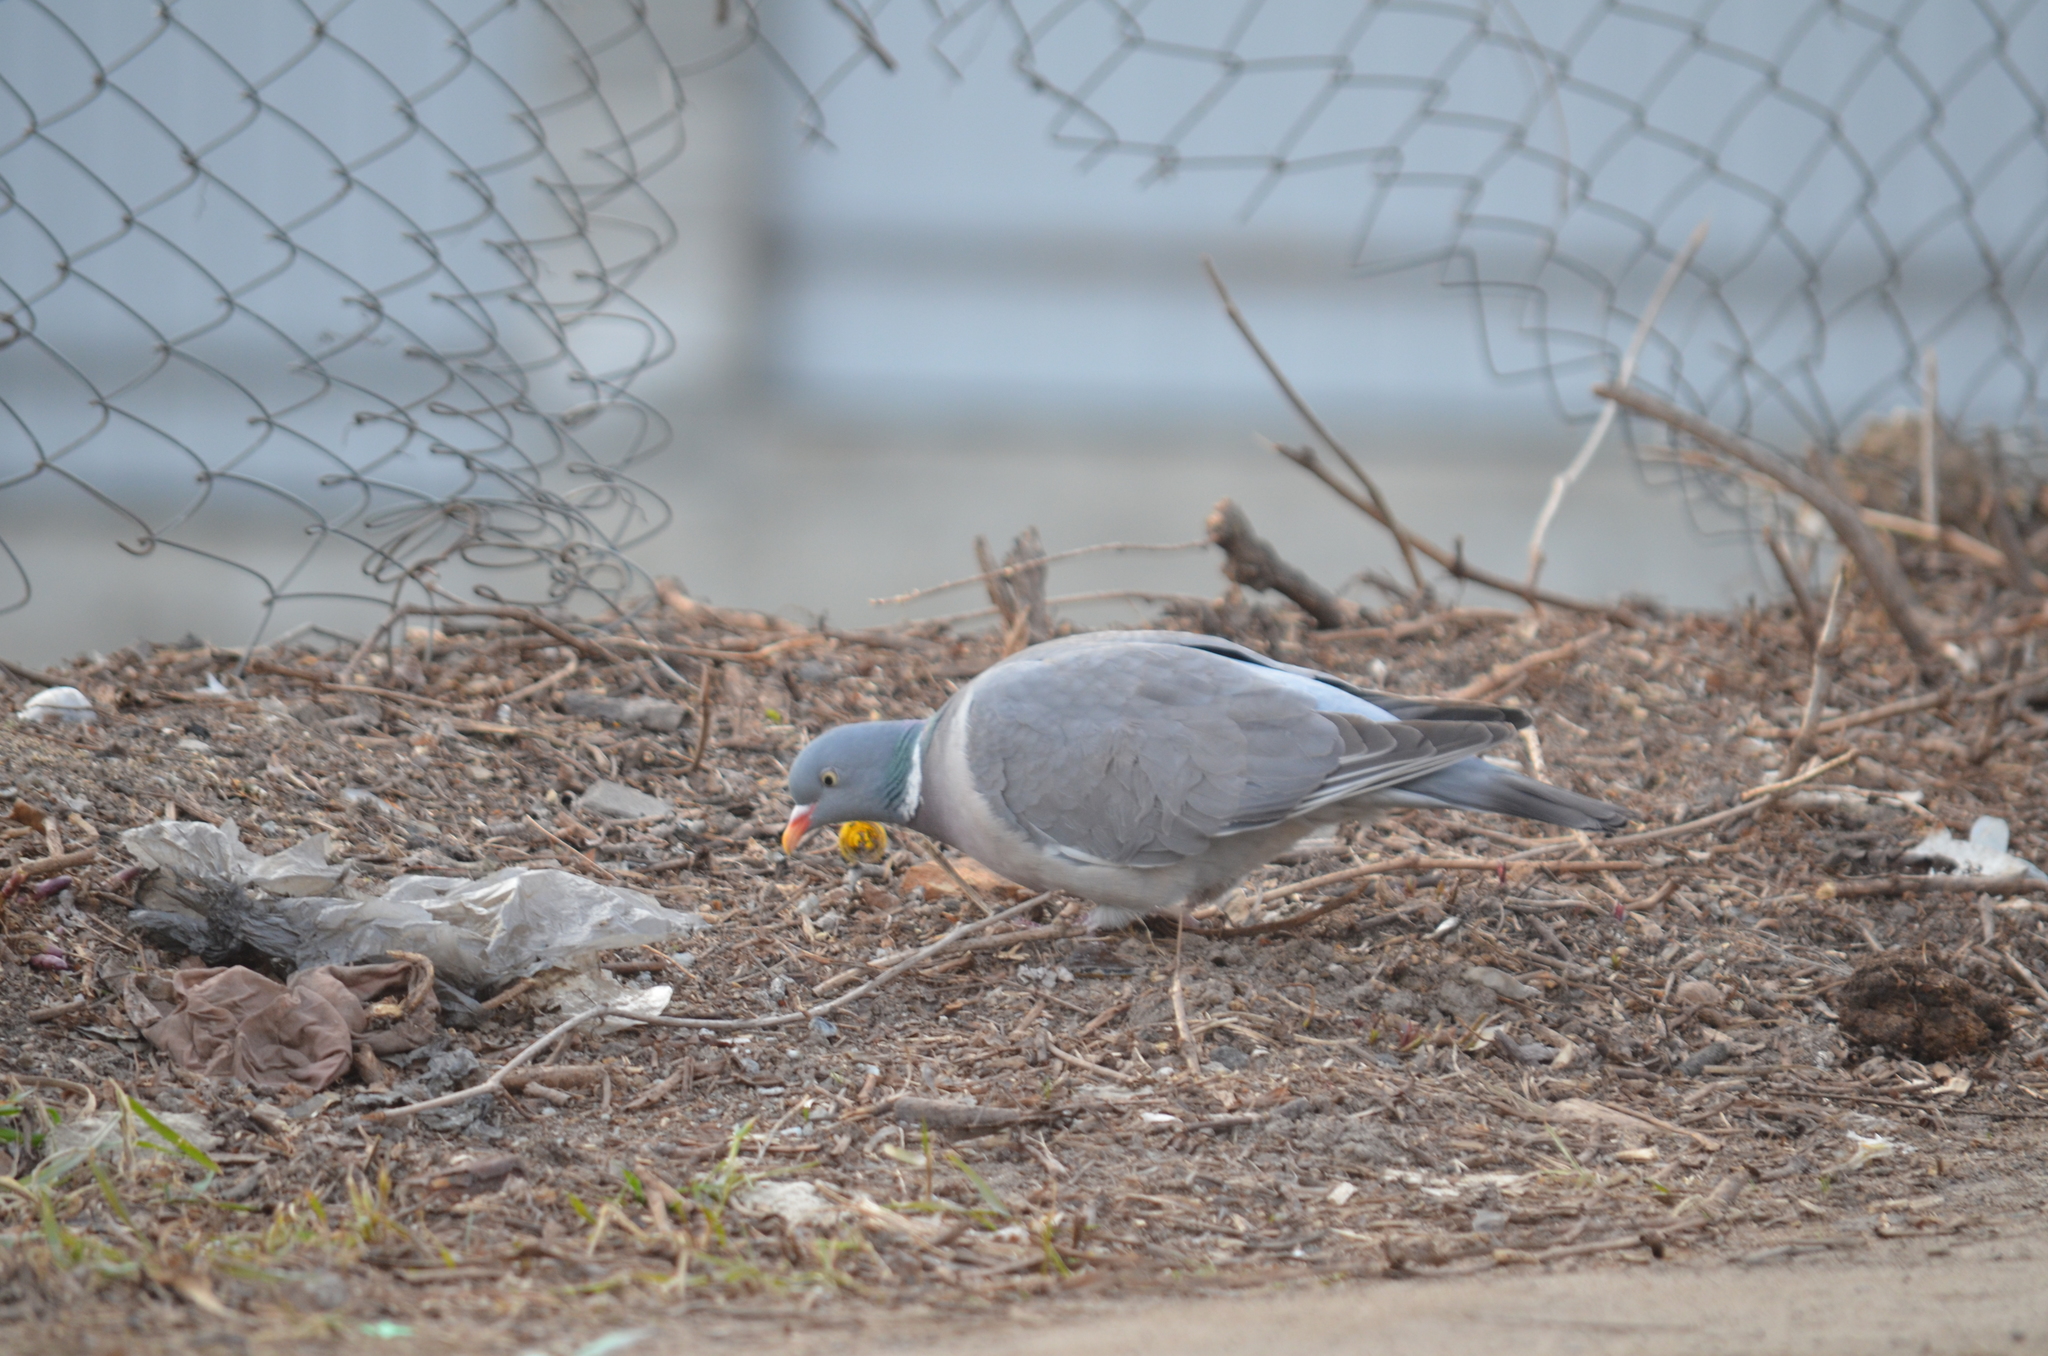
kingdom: Animalia
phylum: Chordata
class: Aves
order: Columbiformes
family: Columbidae
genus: Columba
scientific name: Columba palumbus
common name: Common wood pigeon
